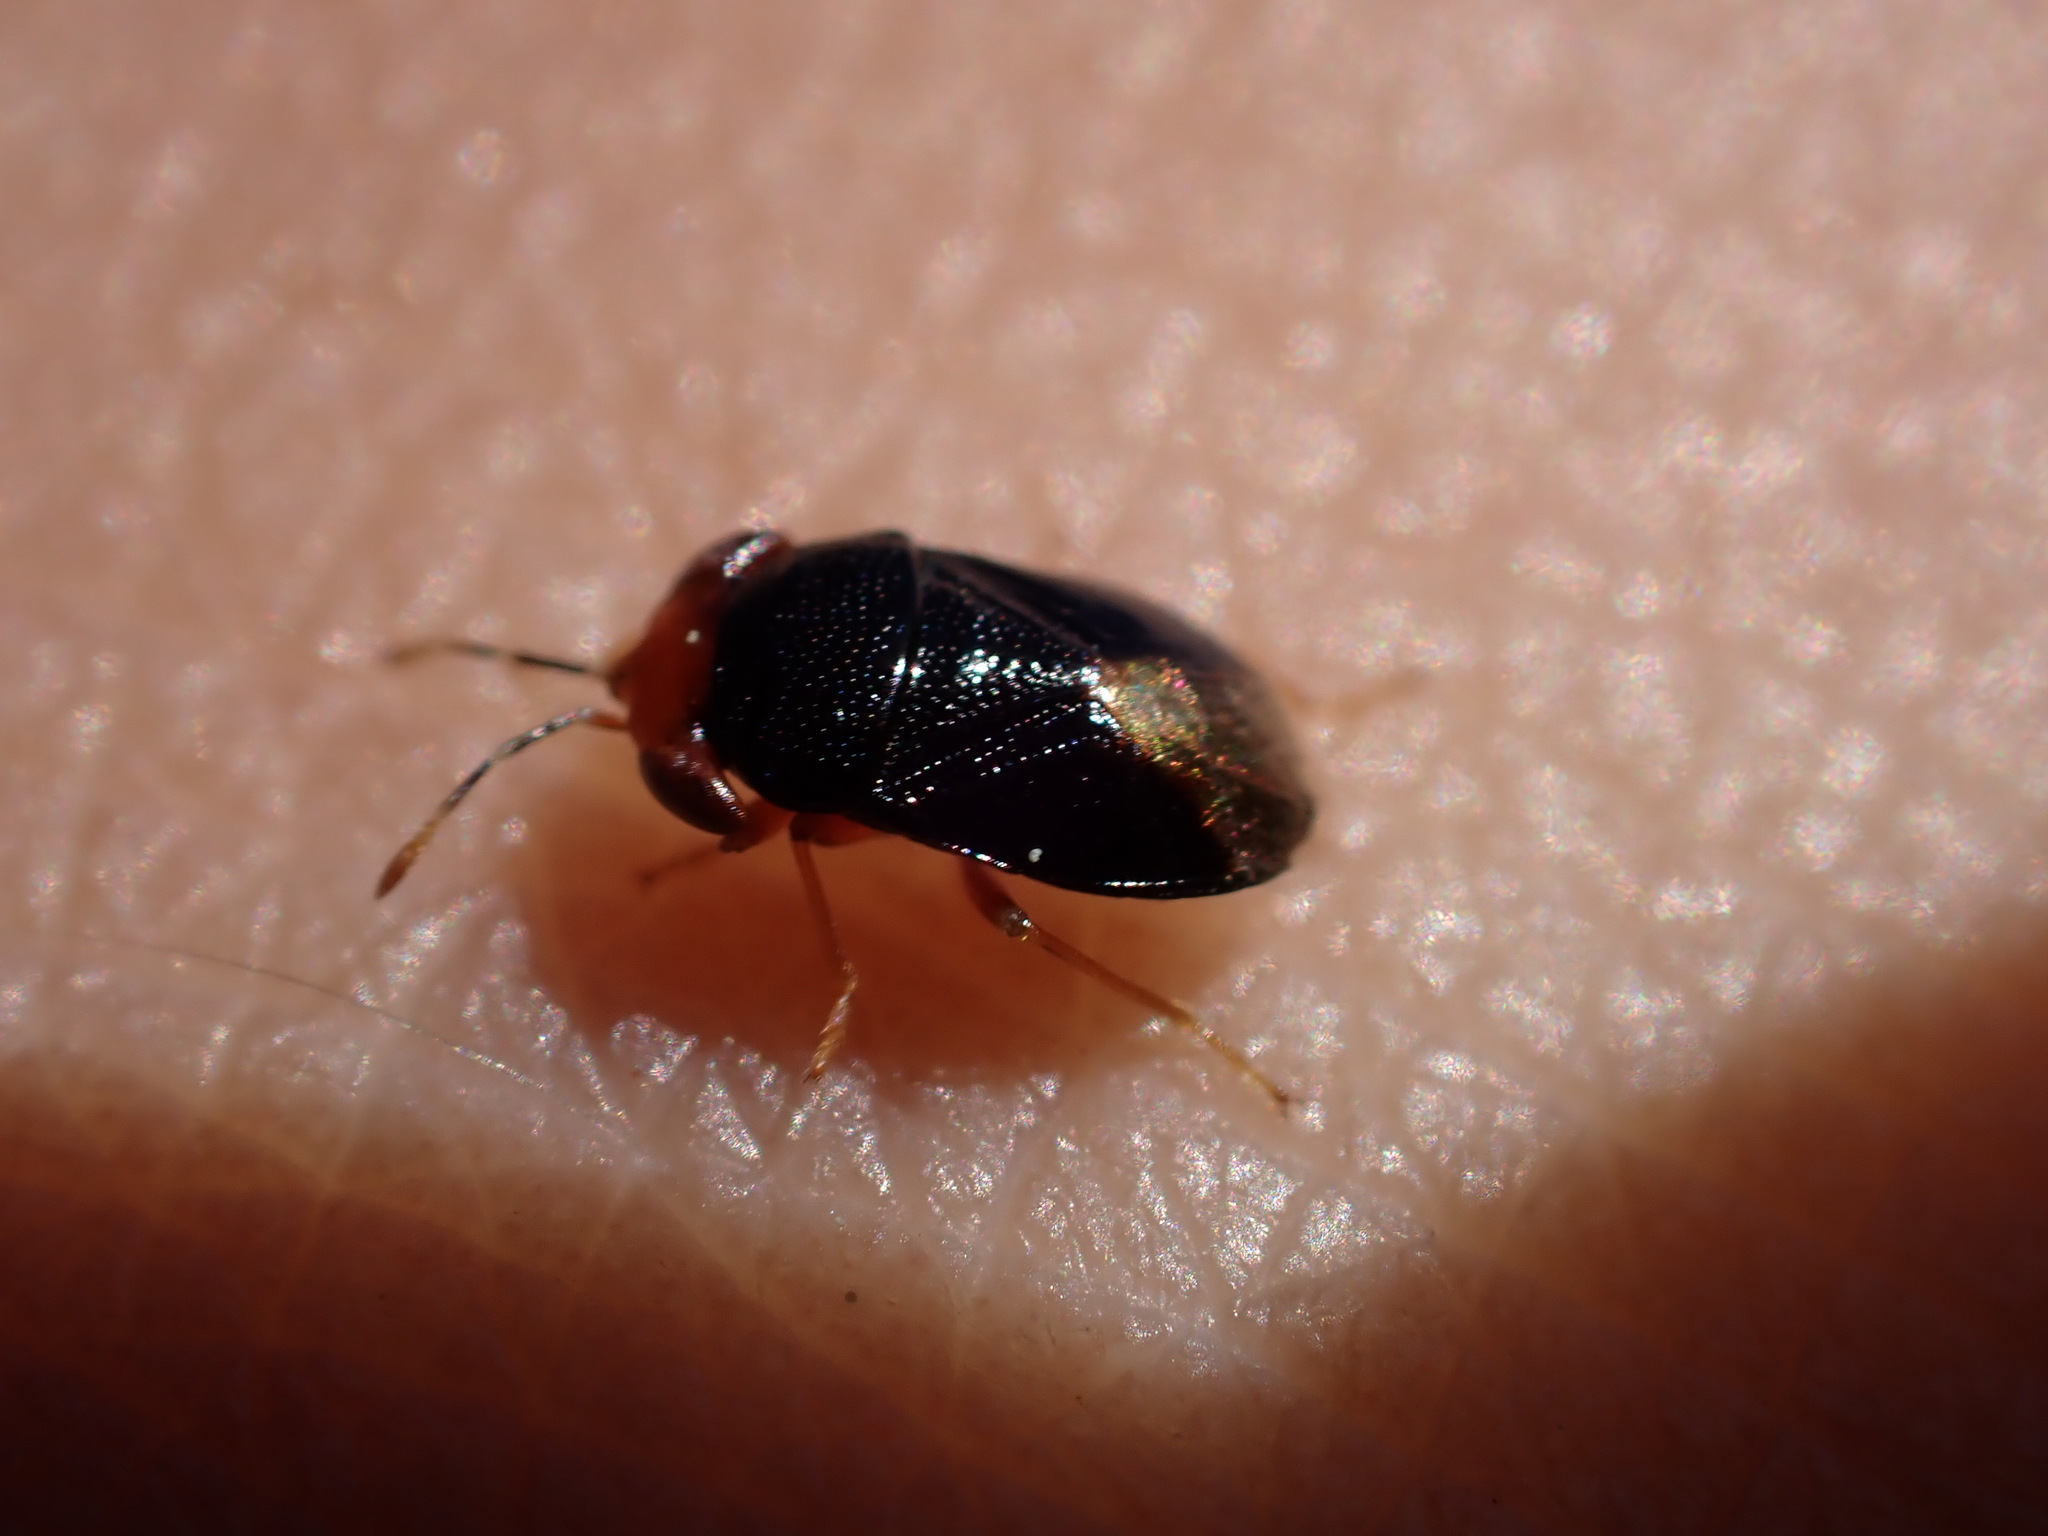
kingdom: Animalia
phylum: Arthropoda
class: Insecta
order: Hemiptera
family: Geocoridae
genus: Geocoris
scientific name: Geocoris erythrocephala
